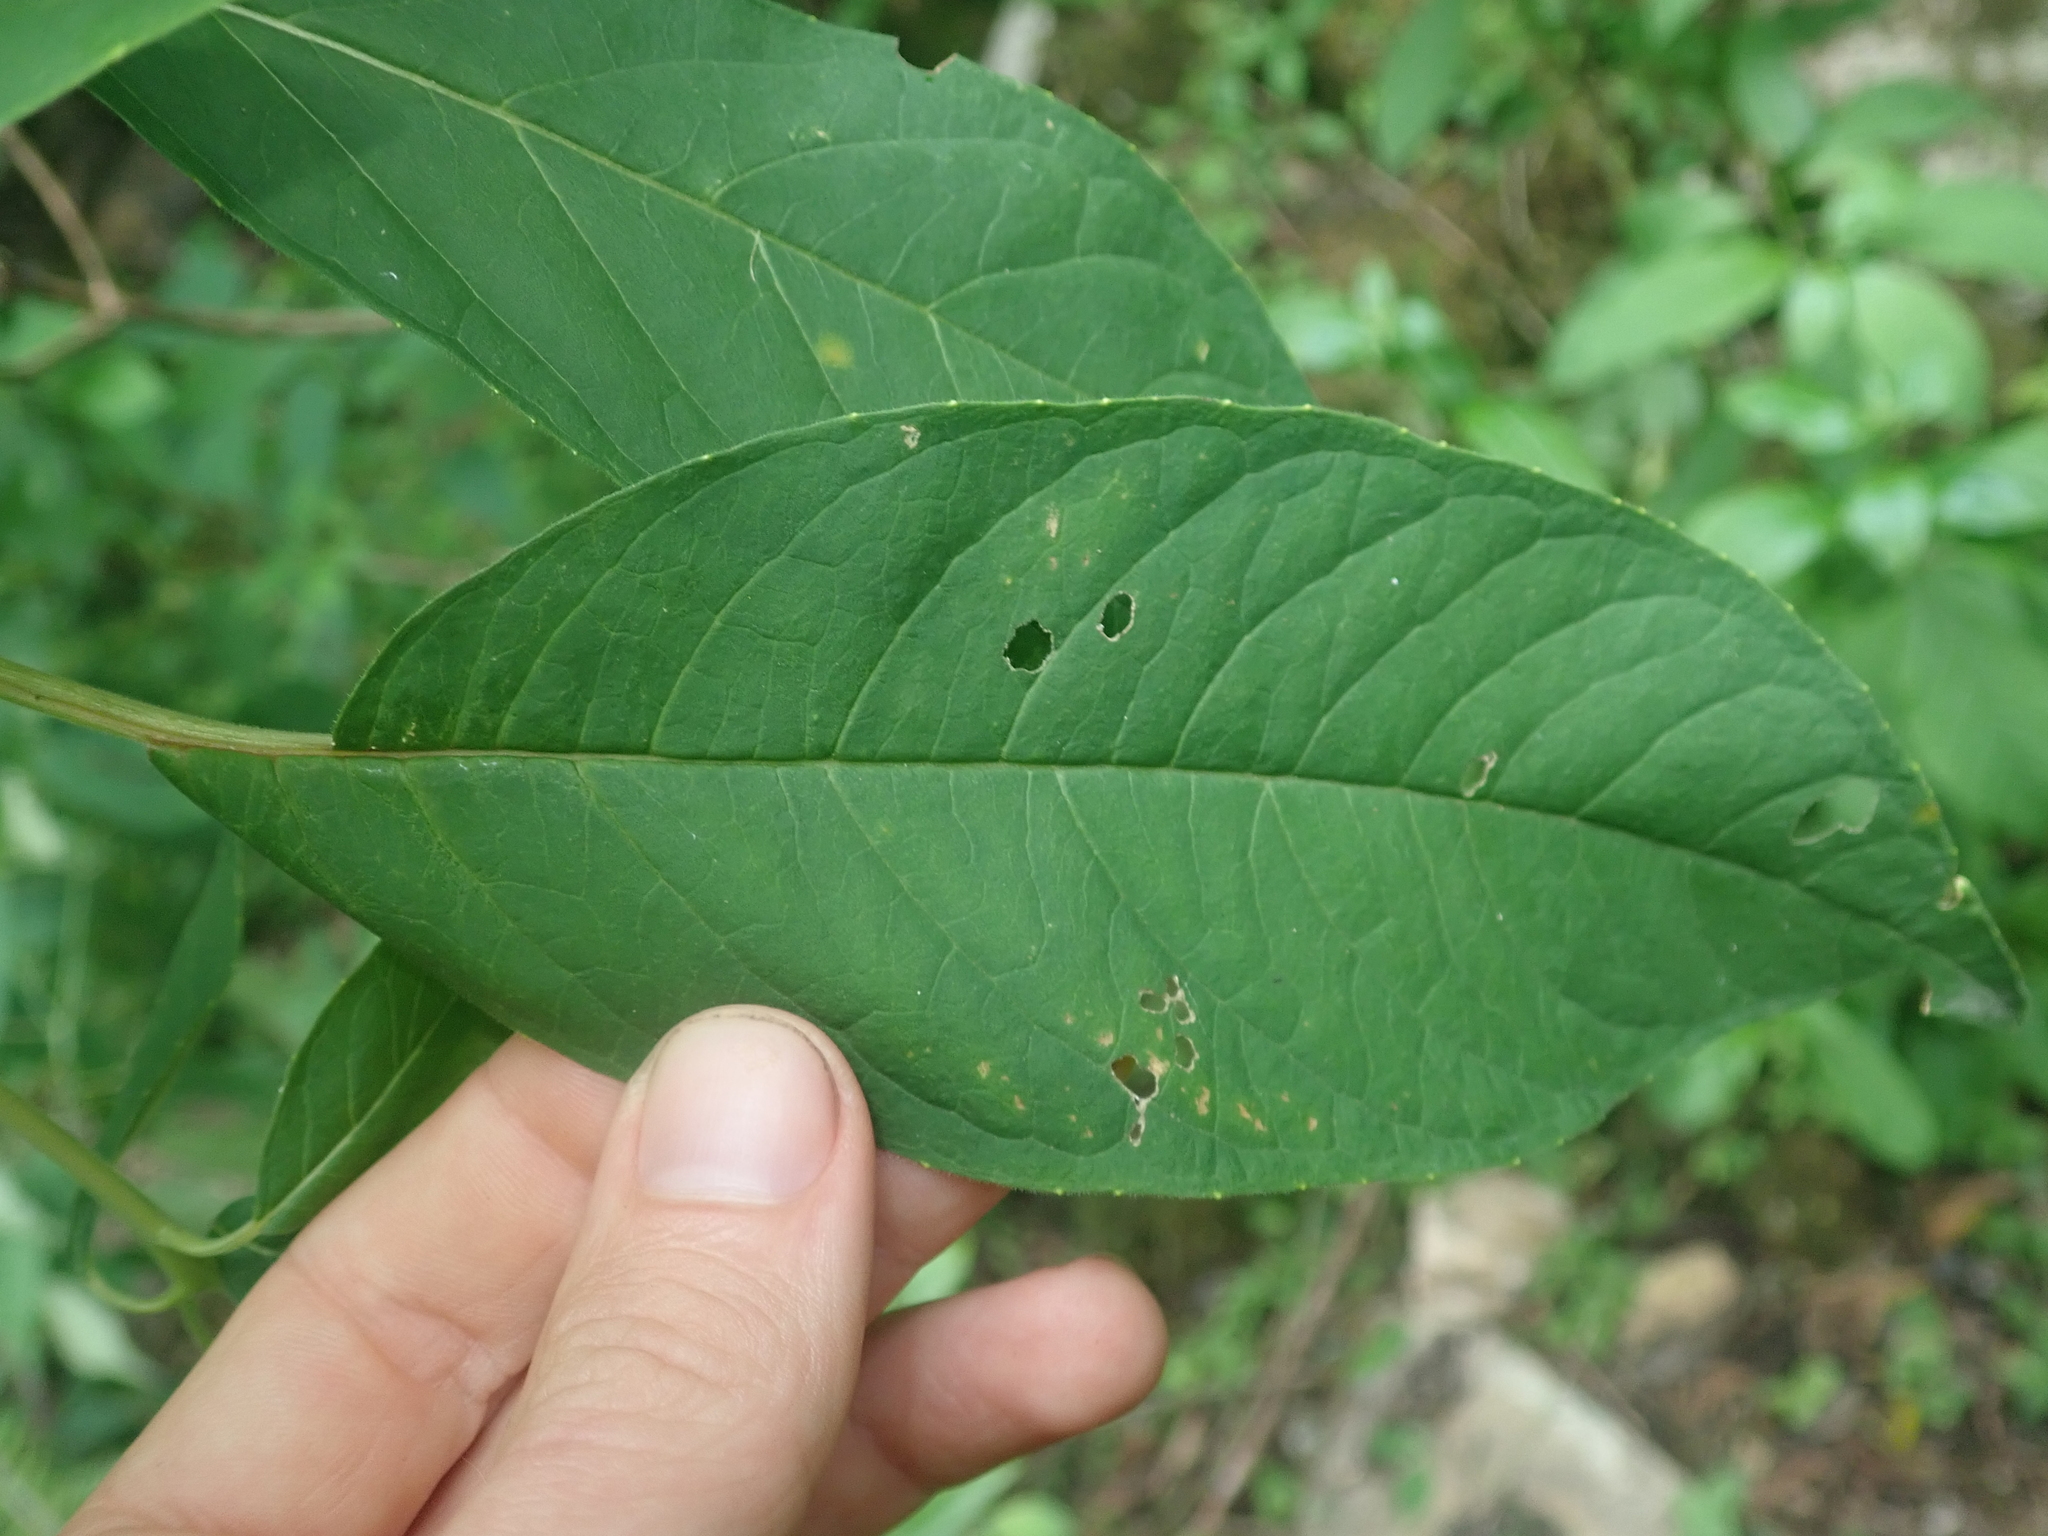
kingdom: Plantae
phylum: Tracheophyta
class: Magnoliopsida
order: Myrtales
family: Onagraceae
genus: Fuchsia
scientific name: Fuchsia boliviana
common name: Bolivian fuchsia
